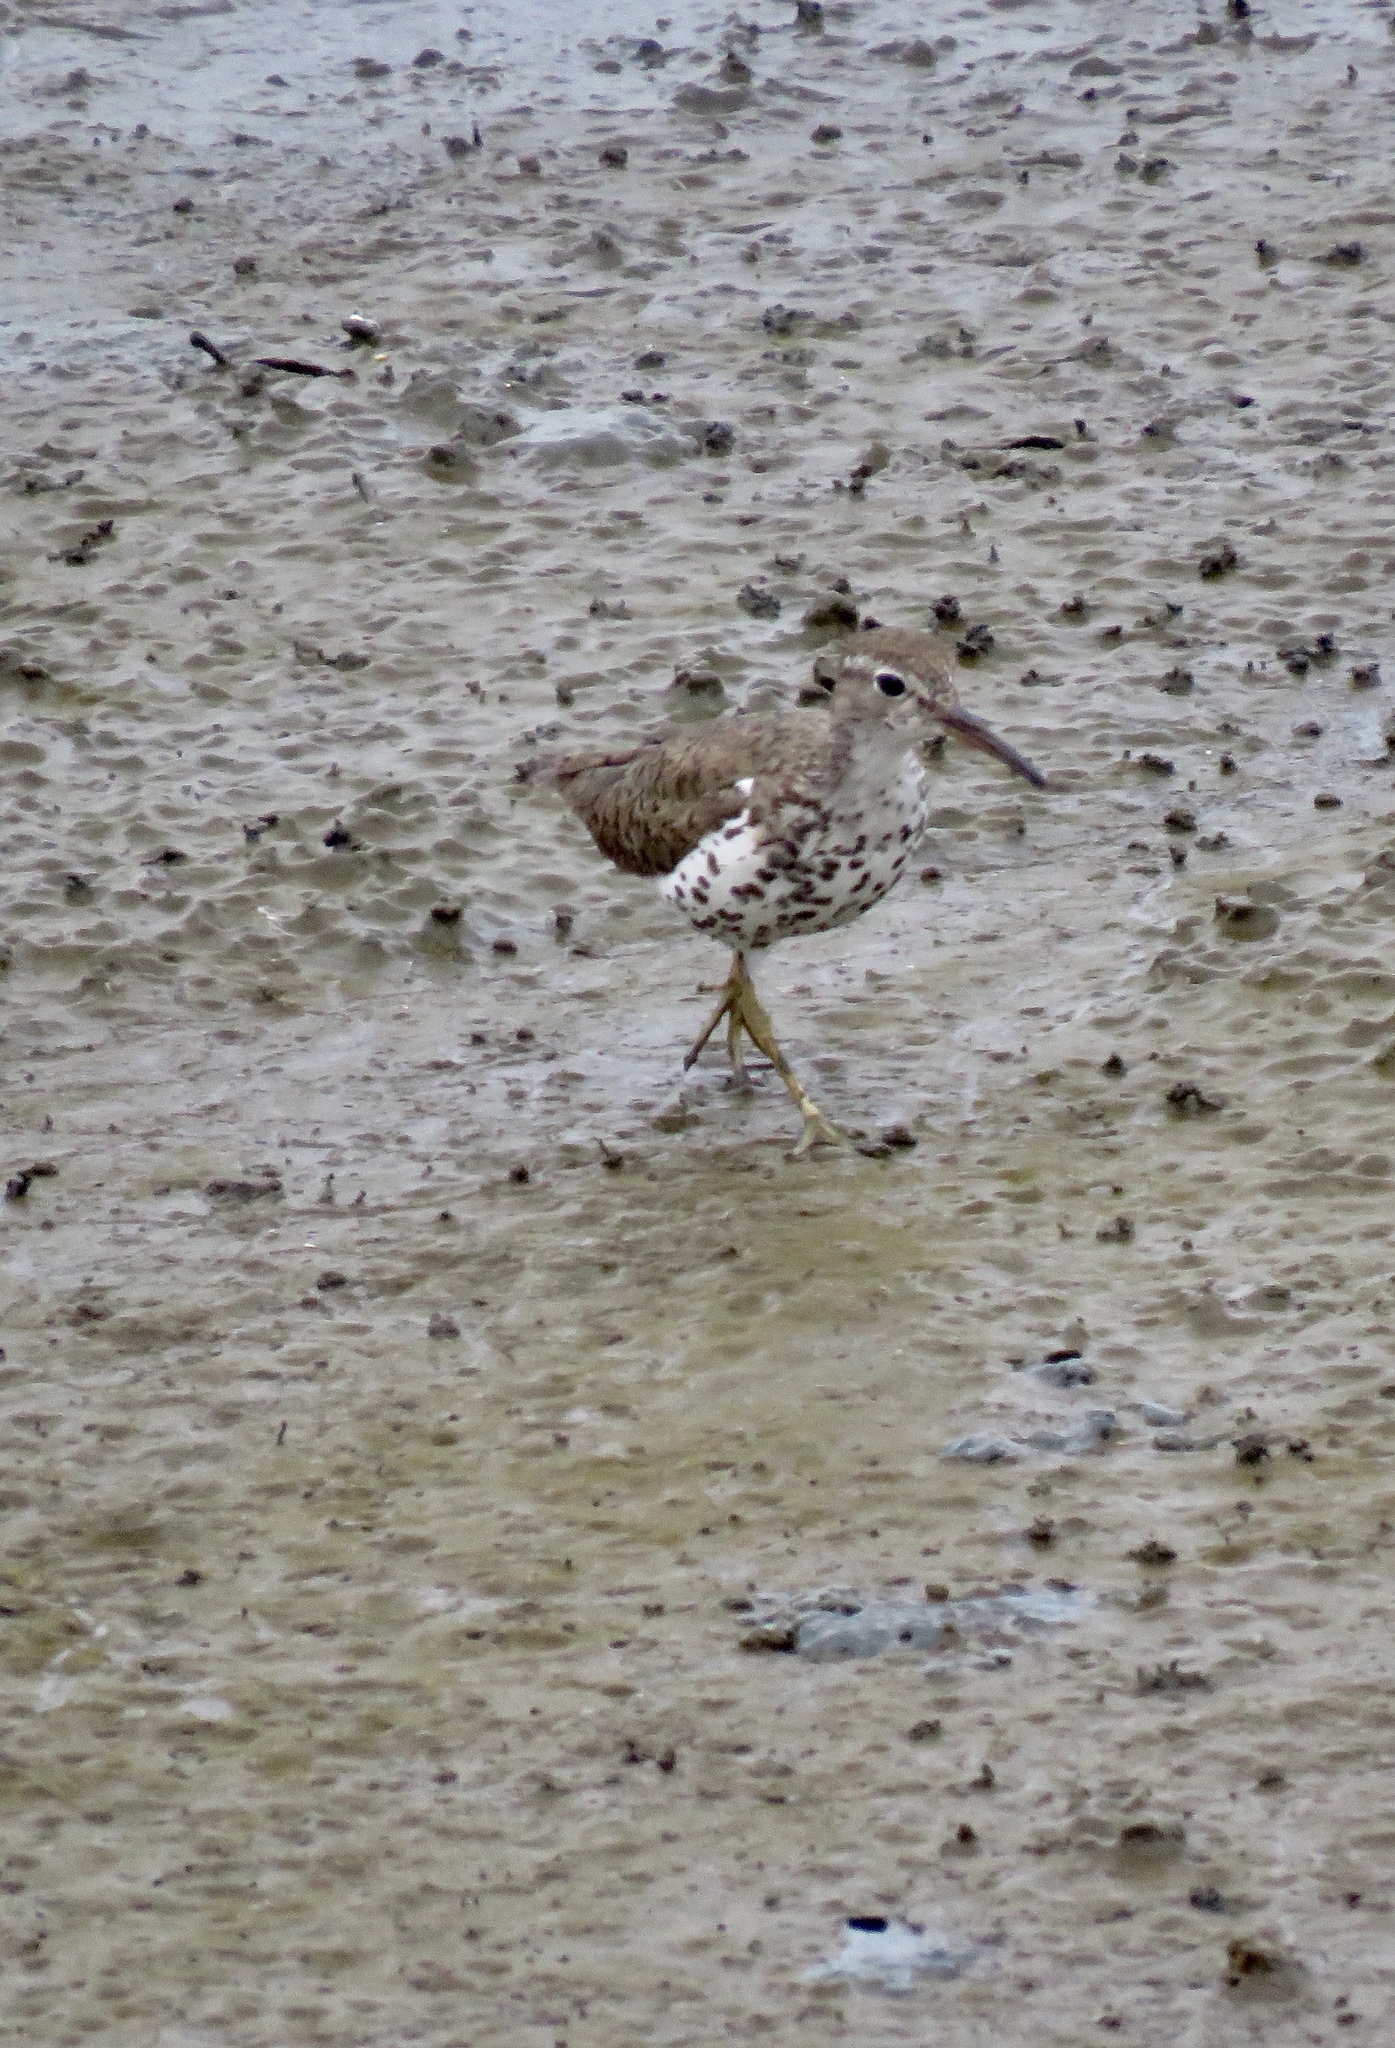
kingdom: Animalia
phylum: Chordata
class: Aves
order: Charadriiformes
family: Scolopacidae
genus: Actitis
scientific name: Actitis macularius
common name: Spotted sandpiper
